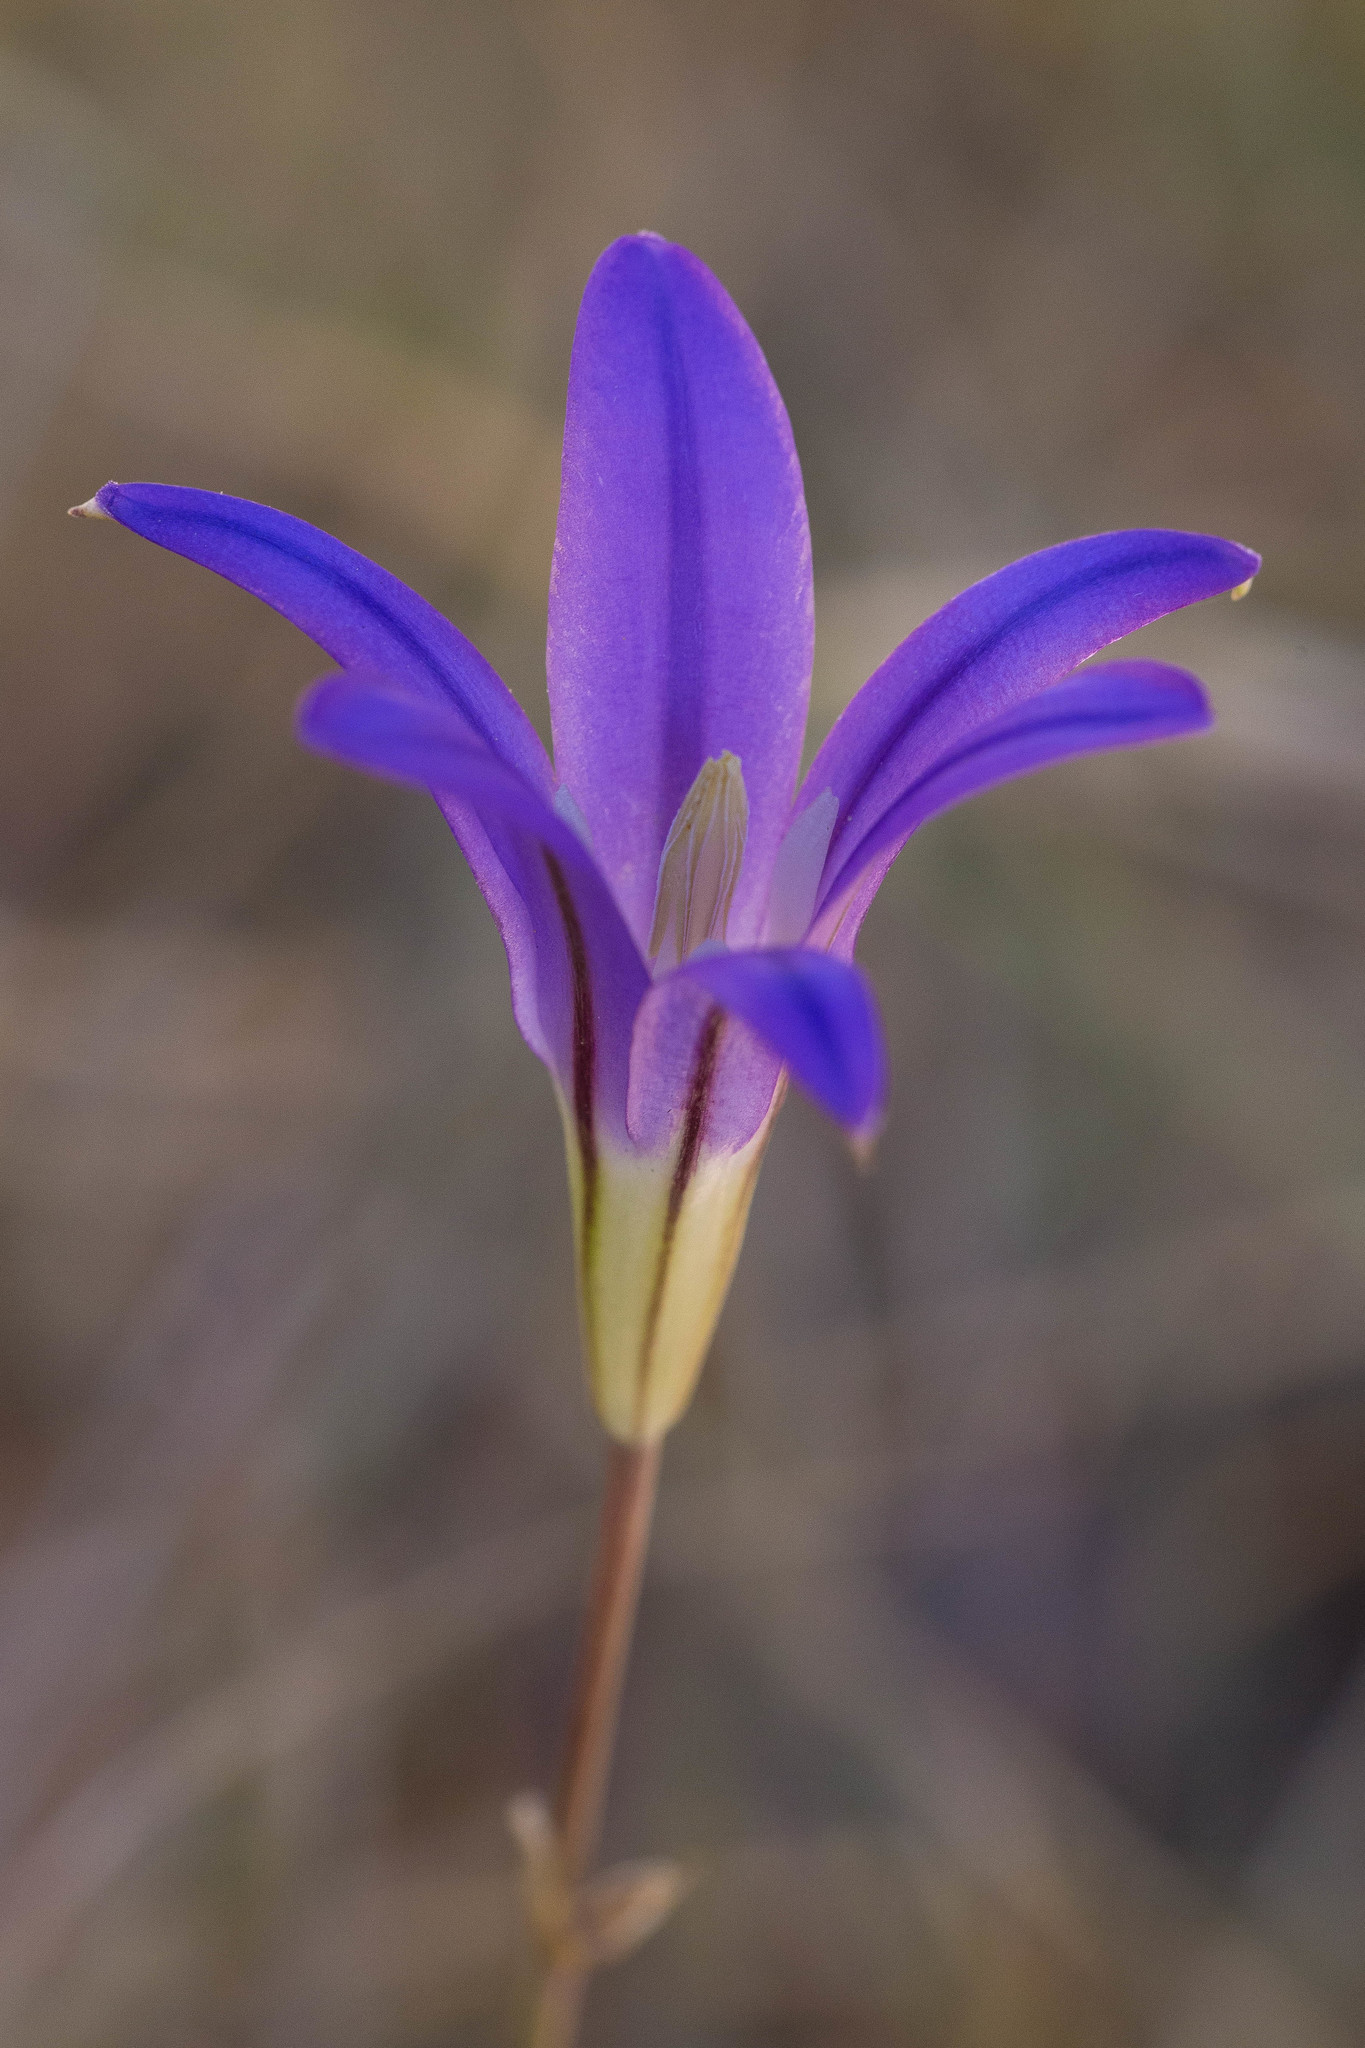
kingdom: Plantae
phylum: Tracheophyta
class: Liliopsida
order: Asparagales
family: Asparagaceae
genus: Brodiaea
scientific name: Brodiaea elegans
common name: Elegant cluster-lily
